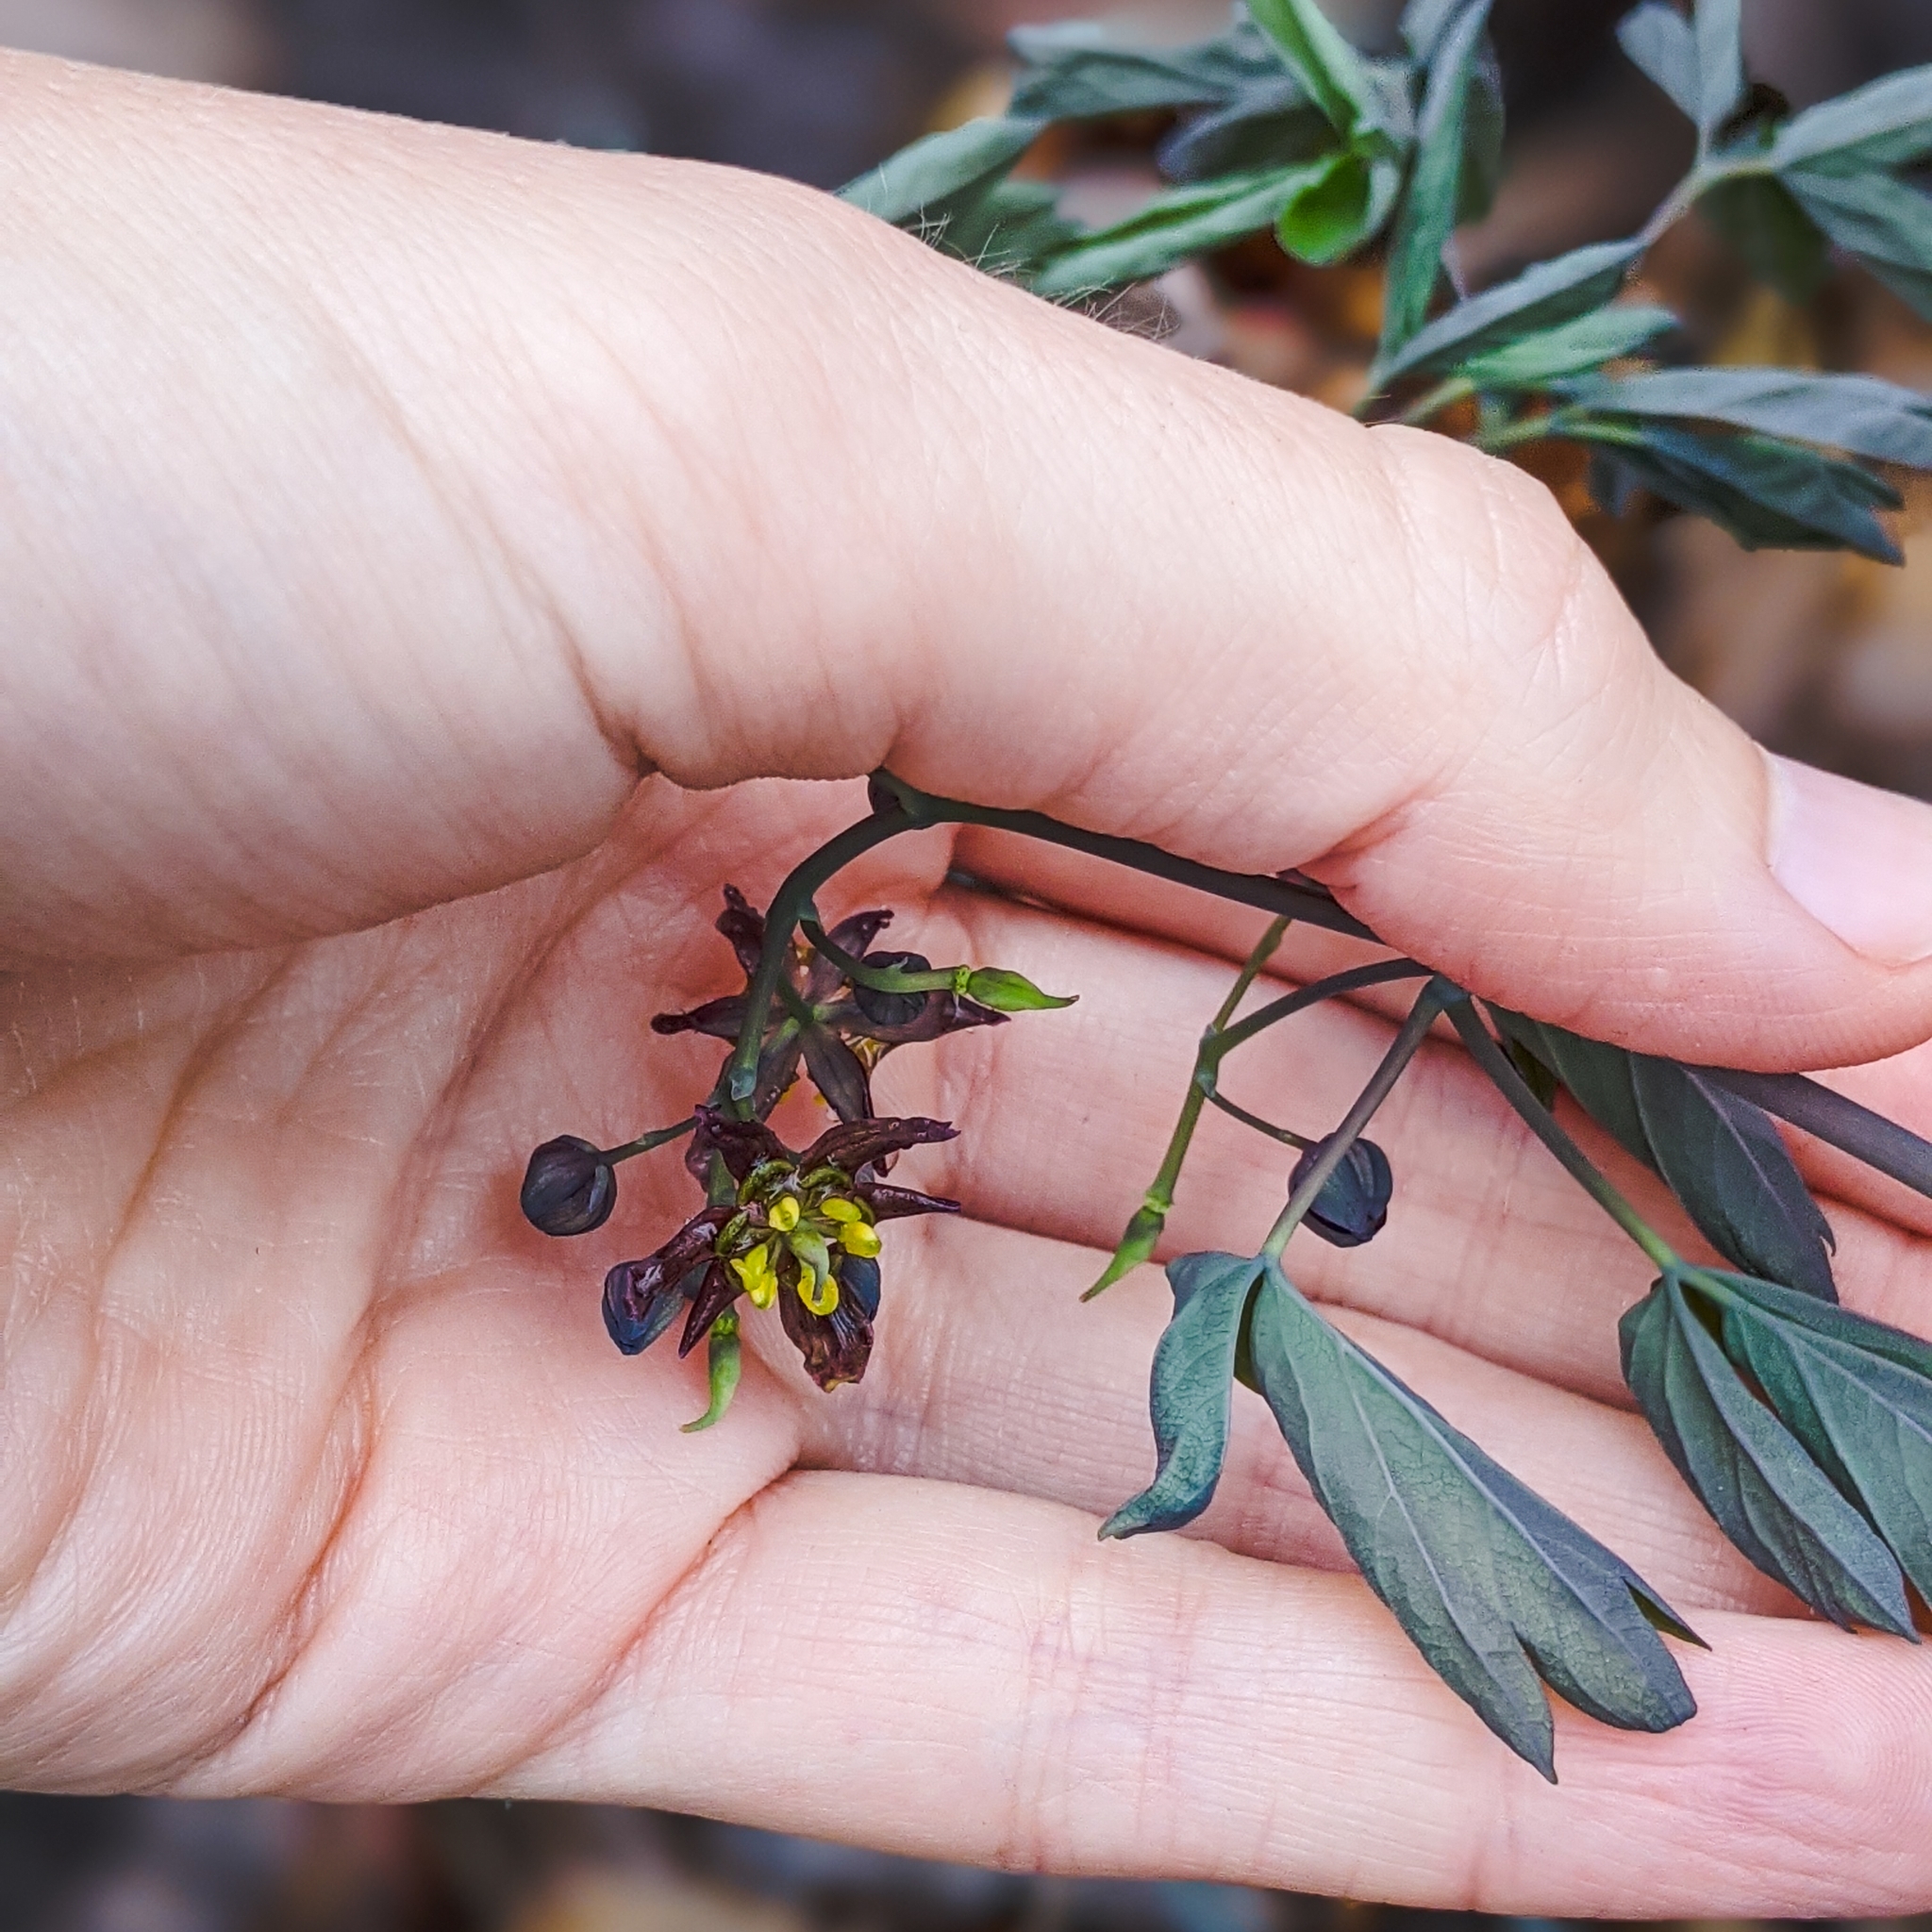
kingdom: Plantae
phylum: Tracheophyta
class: Magnoliopsida
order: Ranunculales
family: Berberidaceae
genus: Caulophyllum
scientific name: Caulophyllum giganteum
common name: Blue cohosh
